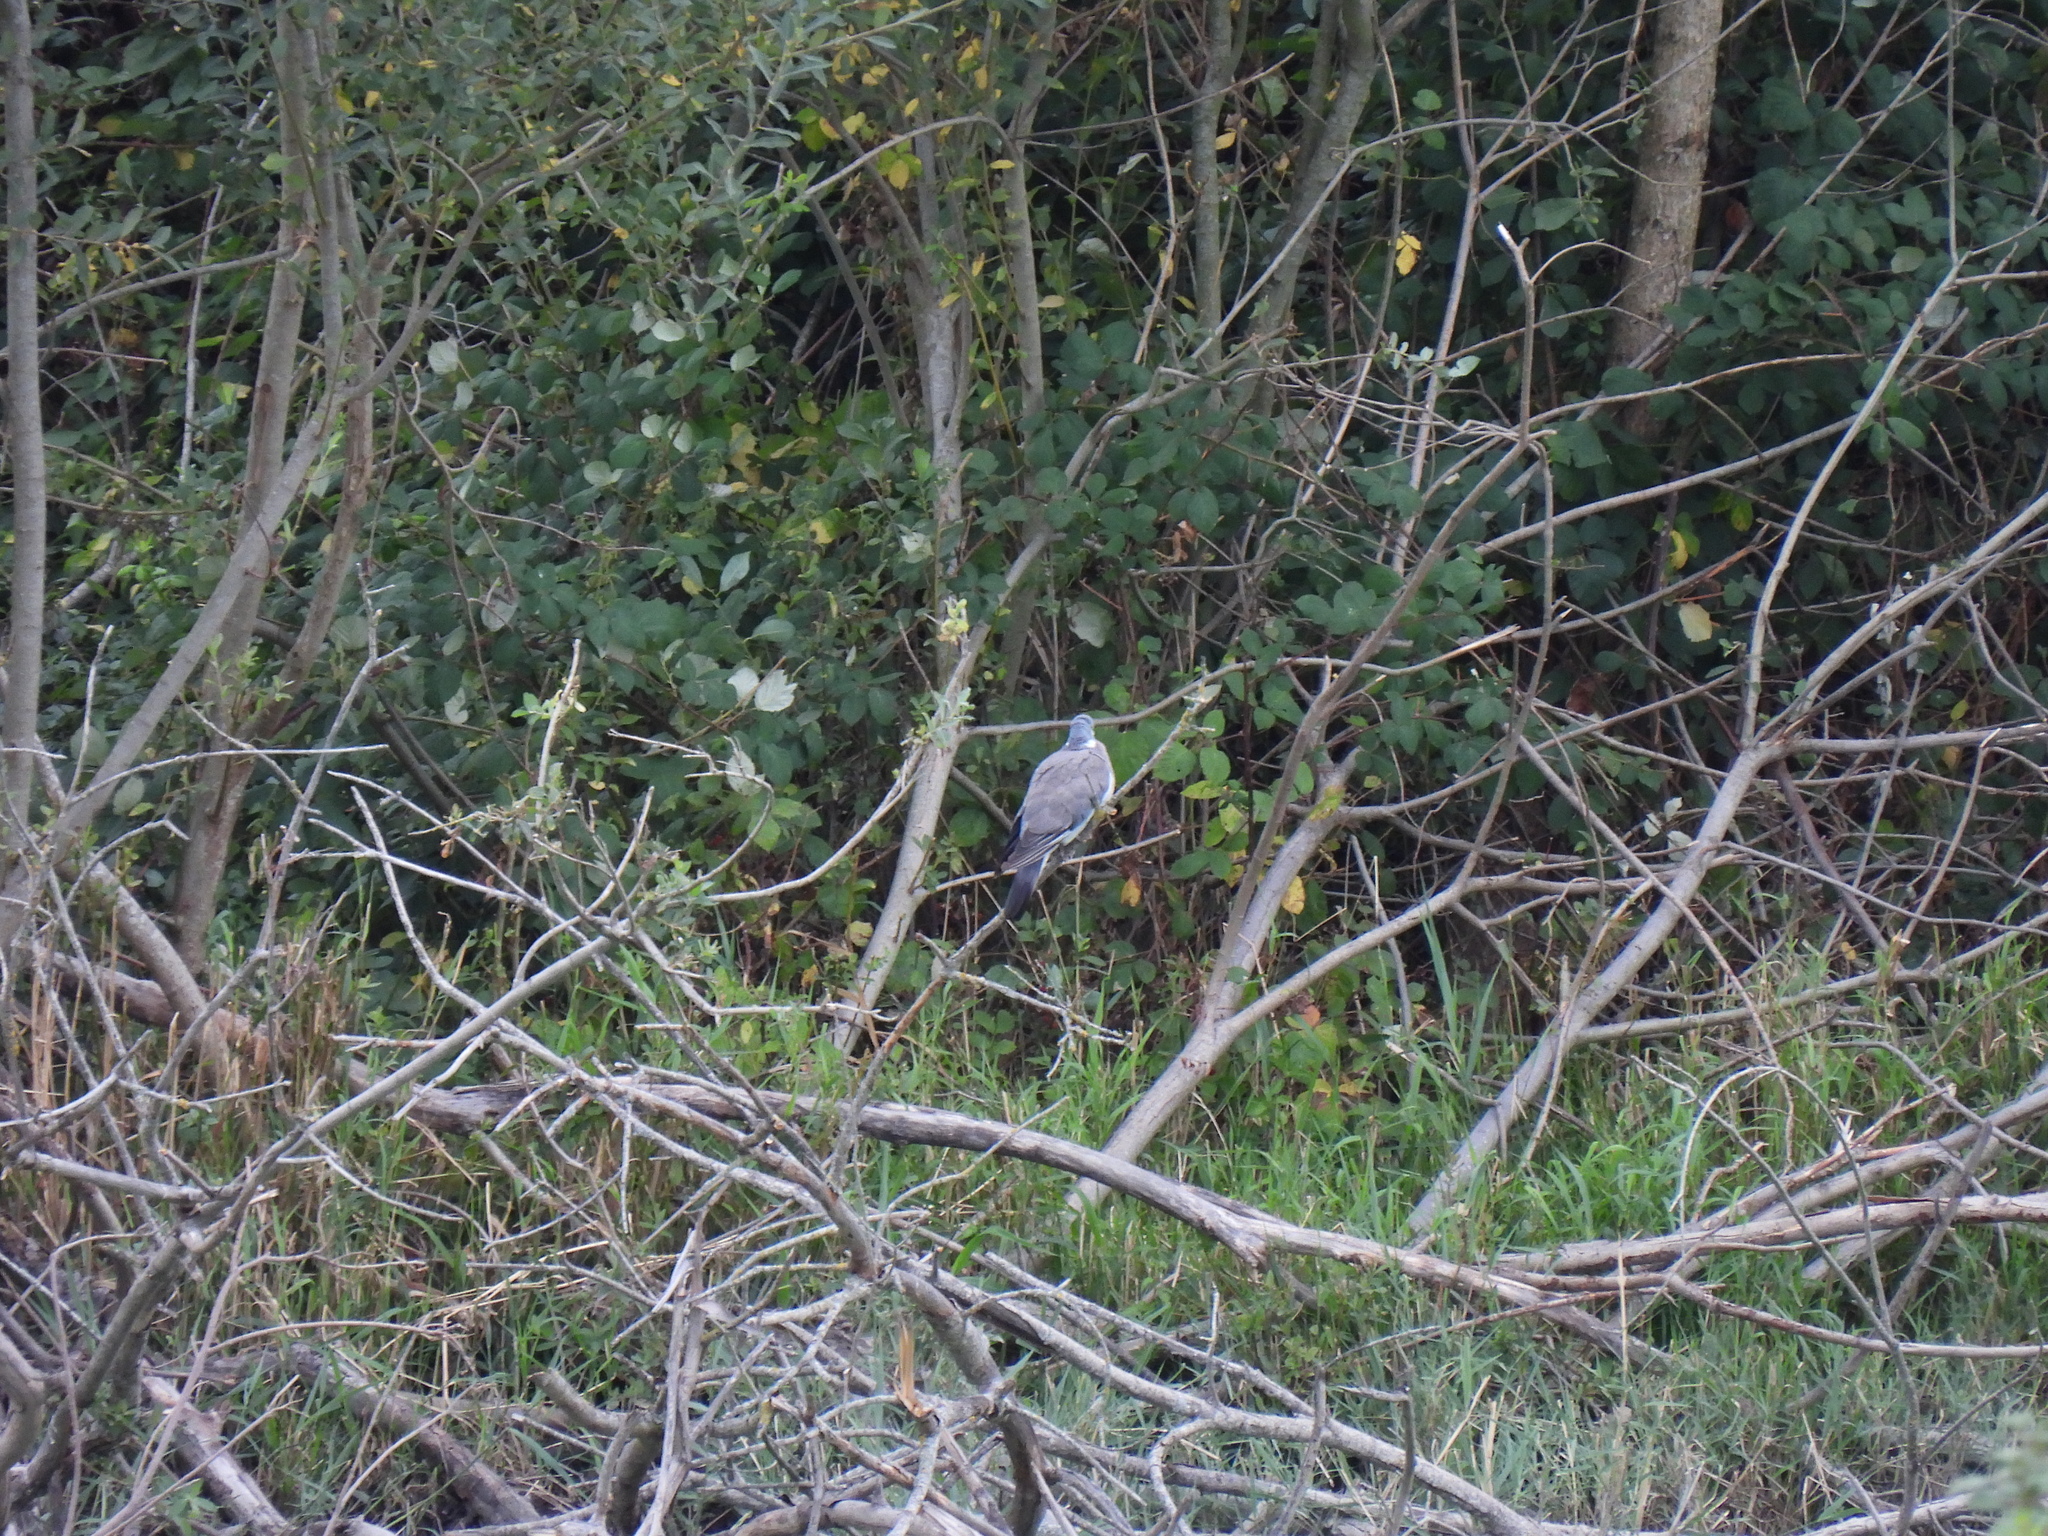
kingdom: Animalia
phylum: Chordata
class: Aves
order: Columbiformes
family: Columbidae
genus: Columba
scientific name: Columba palumbus
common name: Common wood pigeon
